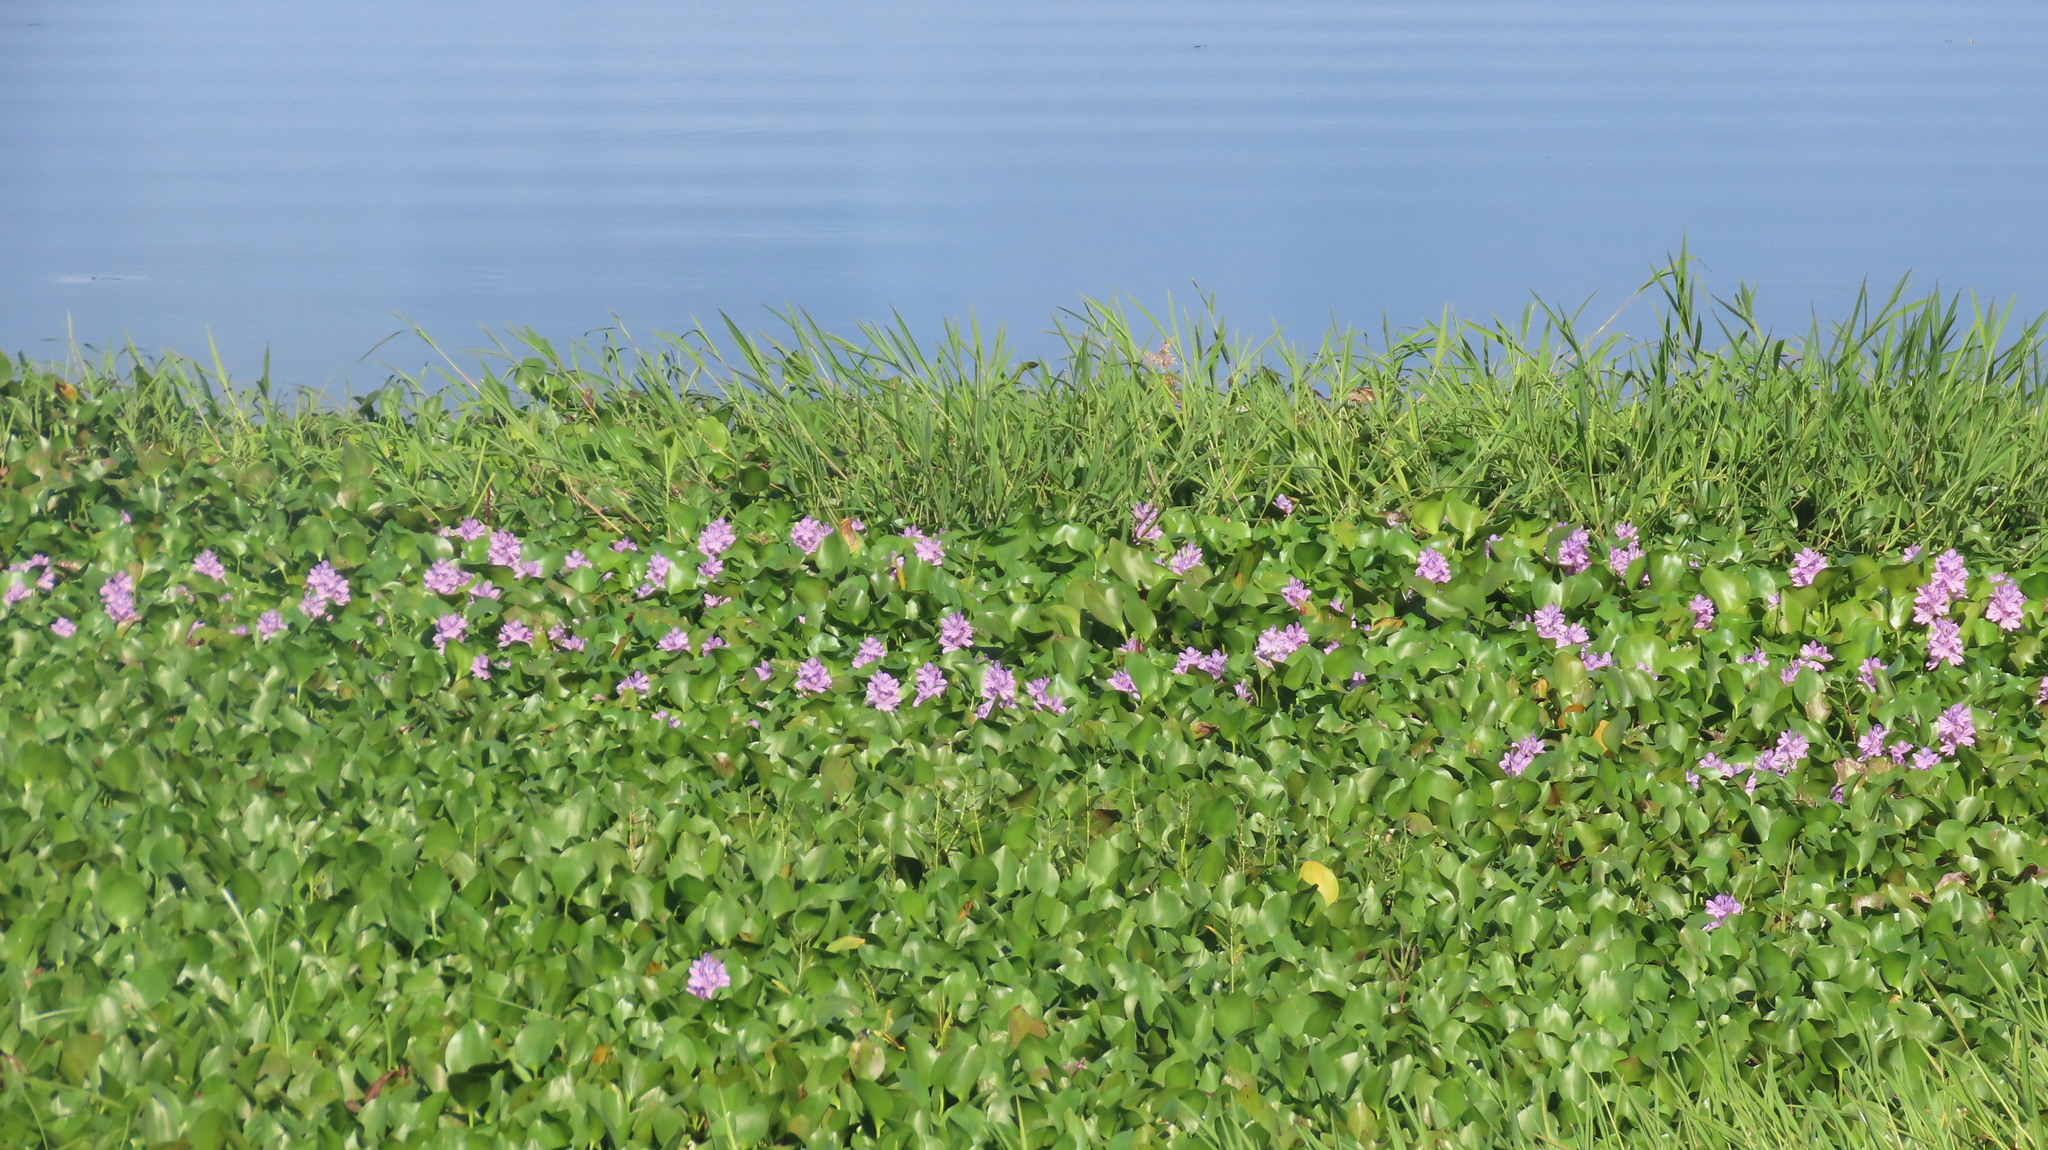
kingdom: Plantae
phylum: Tracheophyta
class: Liliopsida
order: Commelinales
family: Pontederiaceae
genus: Pontederia
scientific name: Pontederia crassipes
